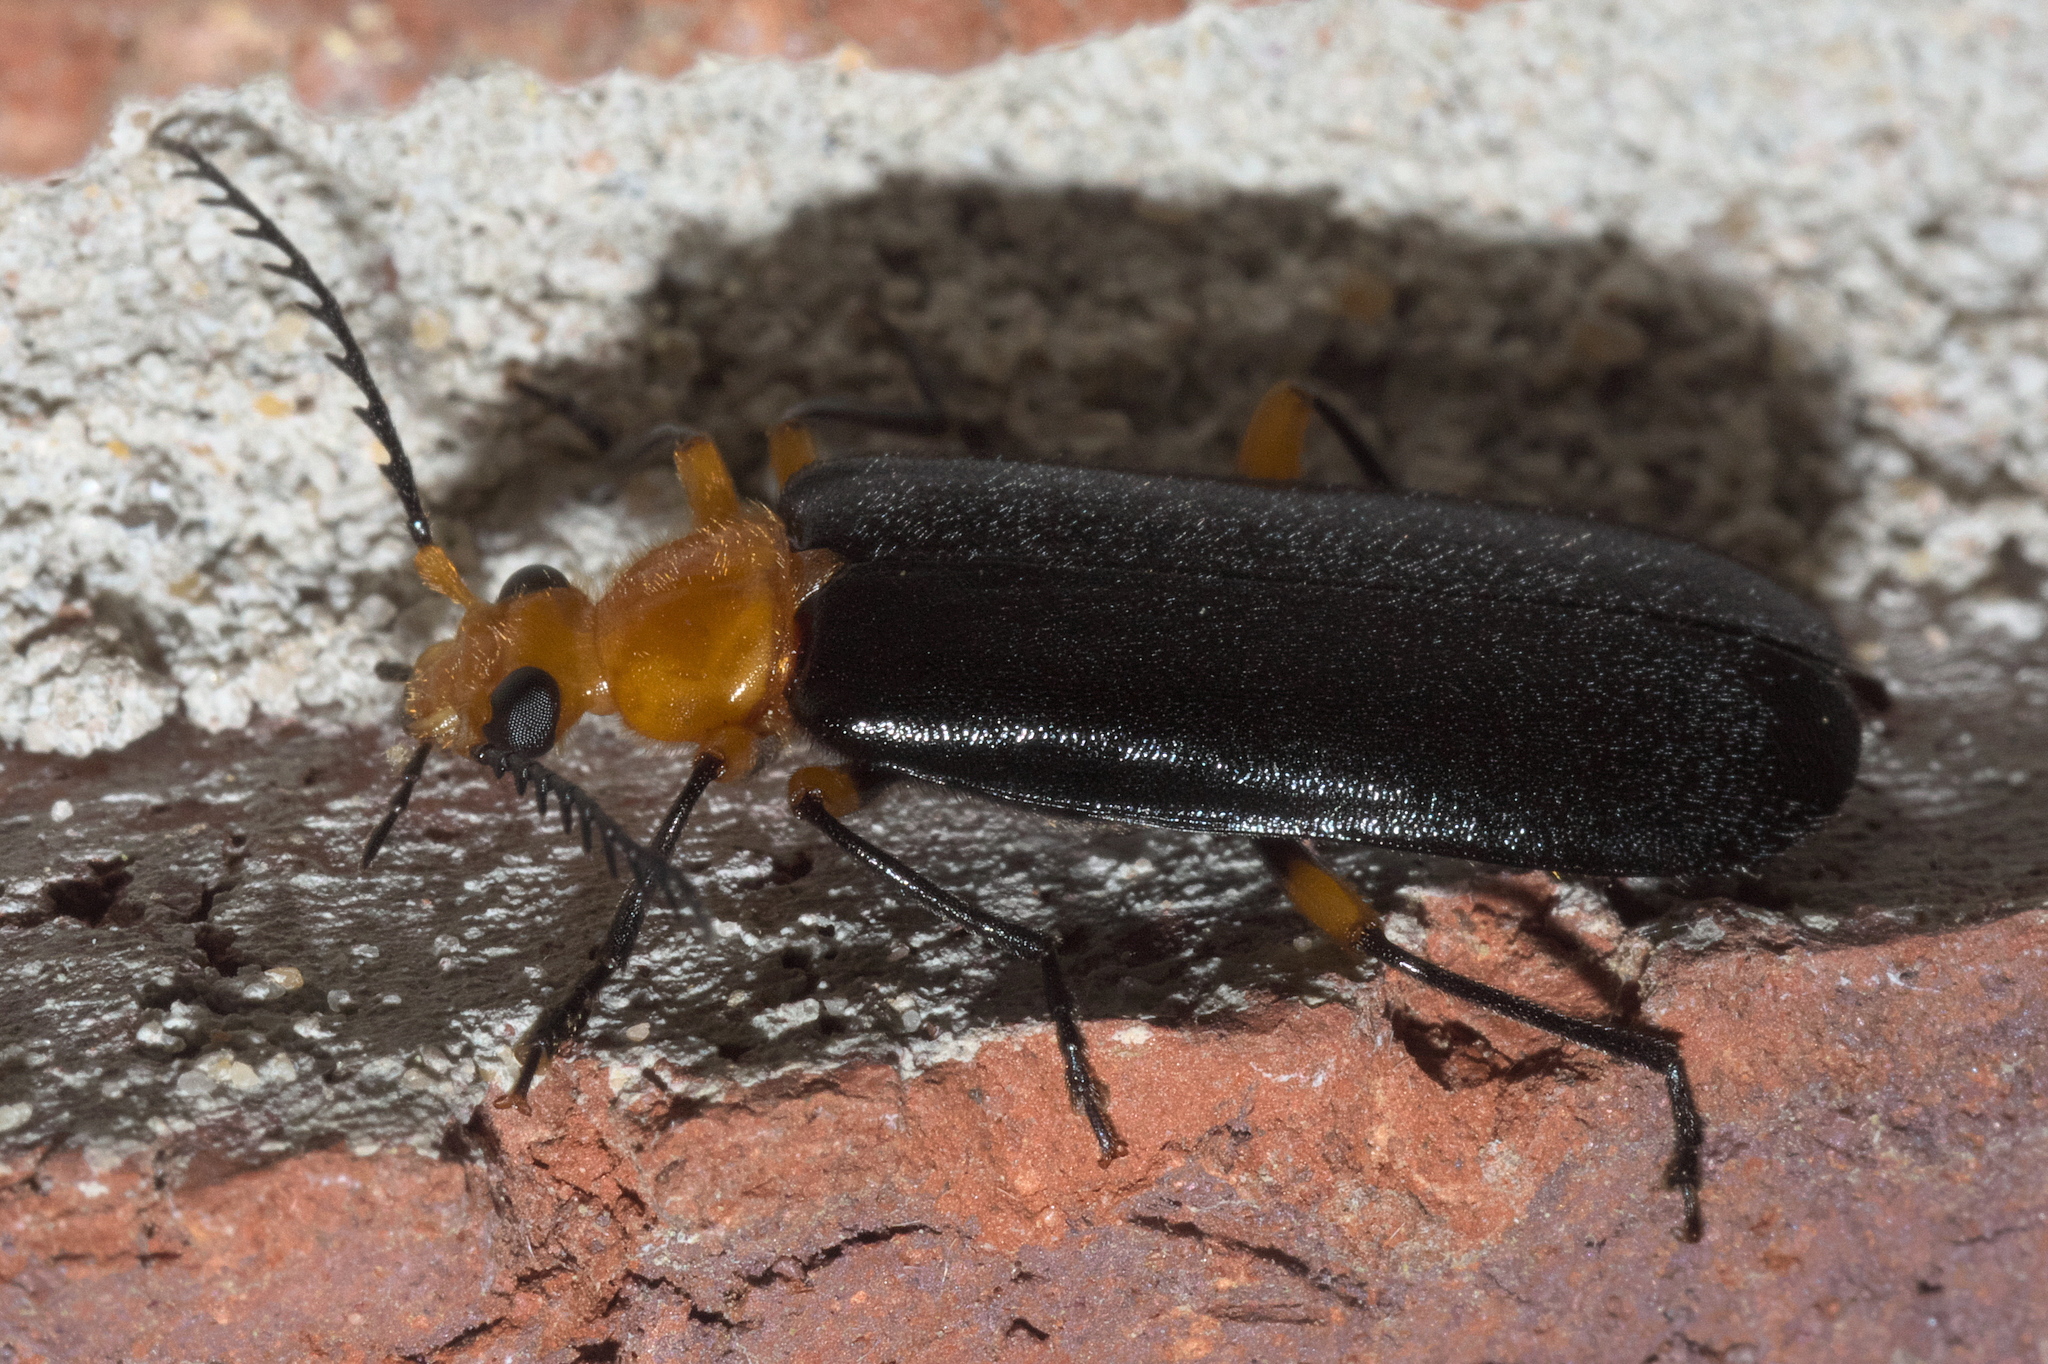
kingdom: Animalia
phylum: Arthropoda
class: Insecta
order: Coleoptera
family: Pyrochroidae
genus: Neopyrochroa
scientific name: Neopyrochroa femoralis
